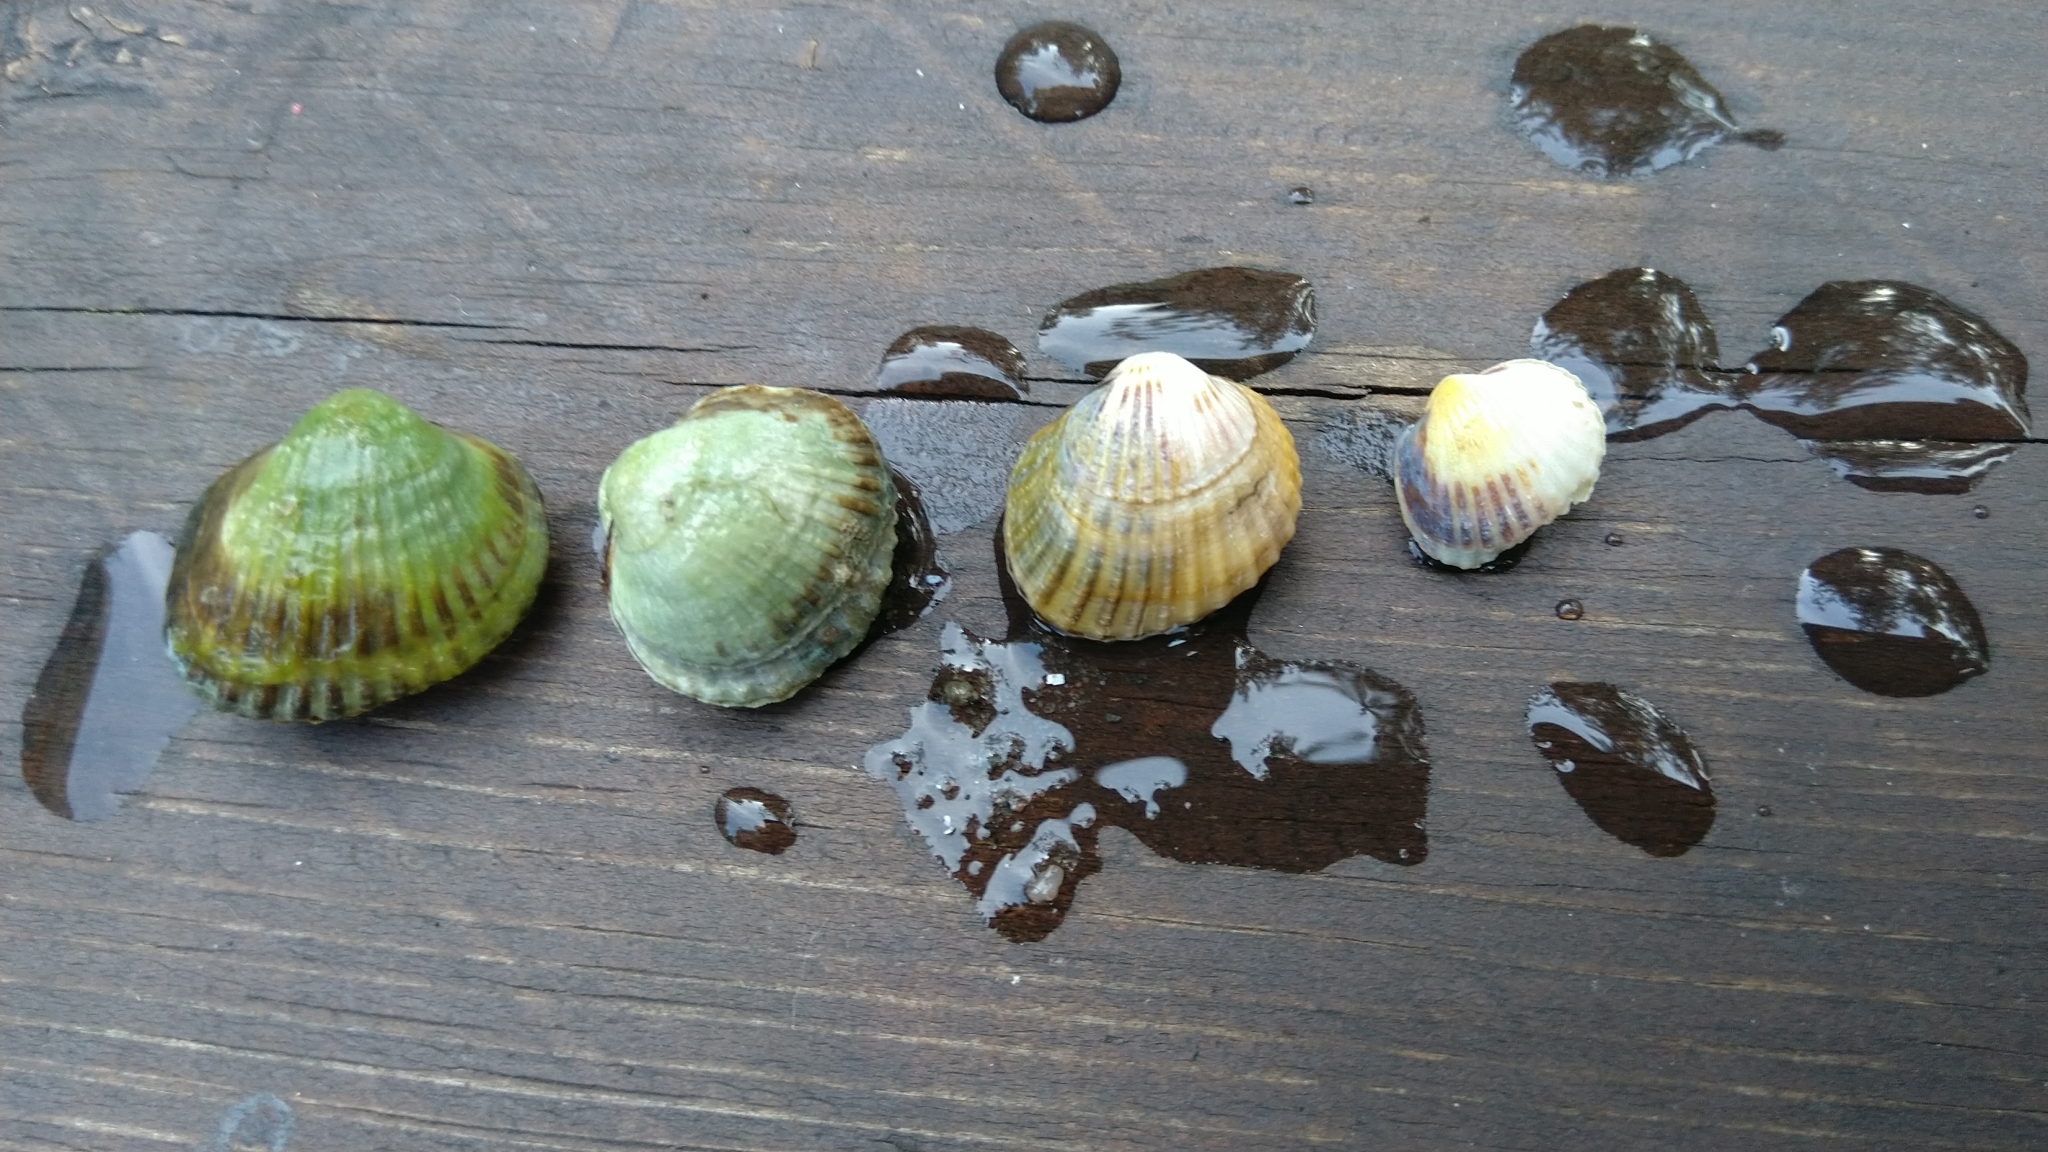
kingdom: Animalia
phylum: Mollusca
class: Bivalvia
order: Cardiida
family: Cardiidae
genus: Cerastoderma
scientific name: Cerastoderma glaucum
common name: Lagoon cockle
